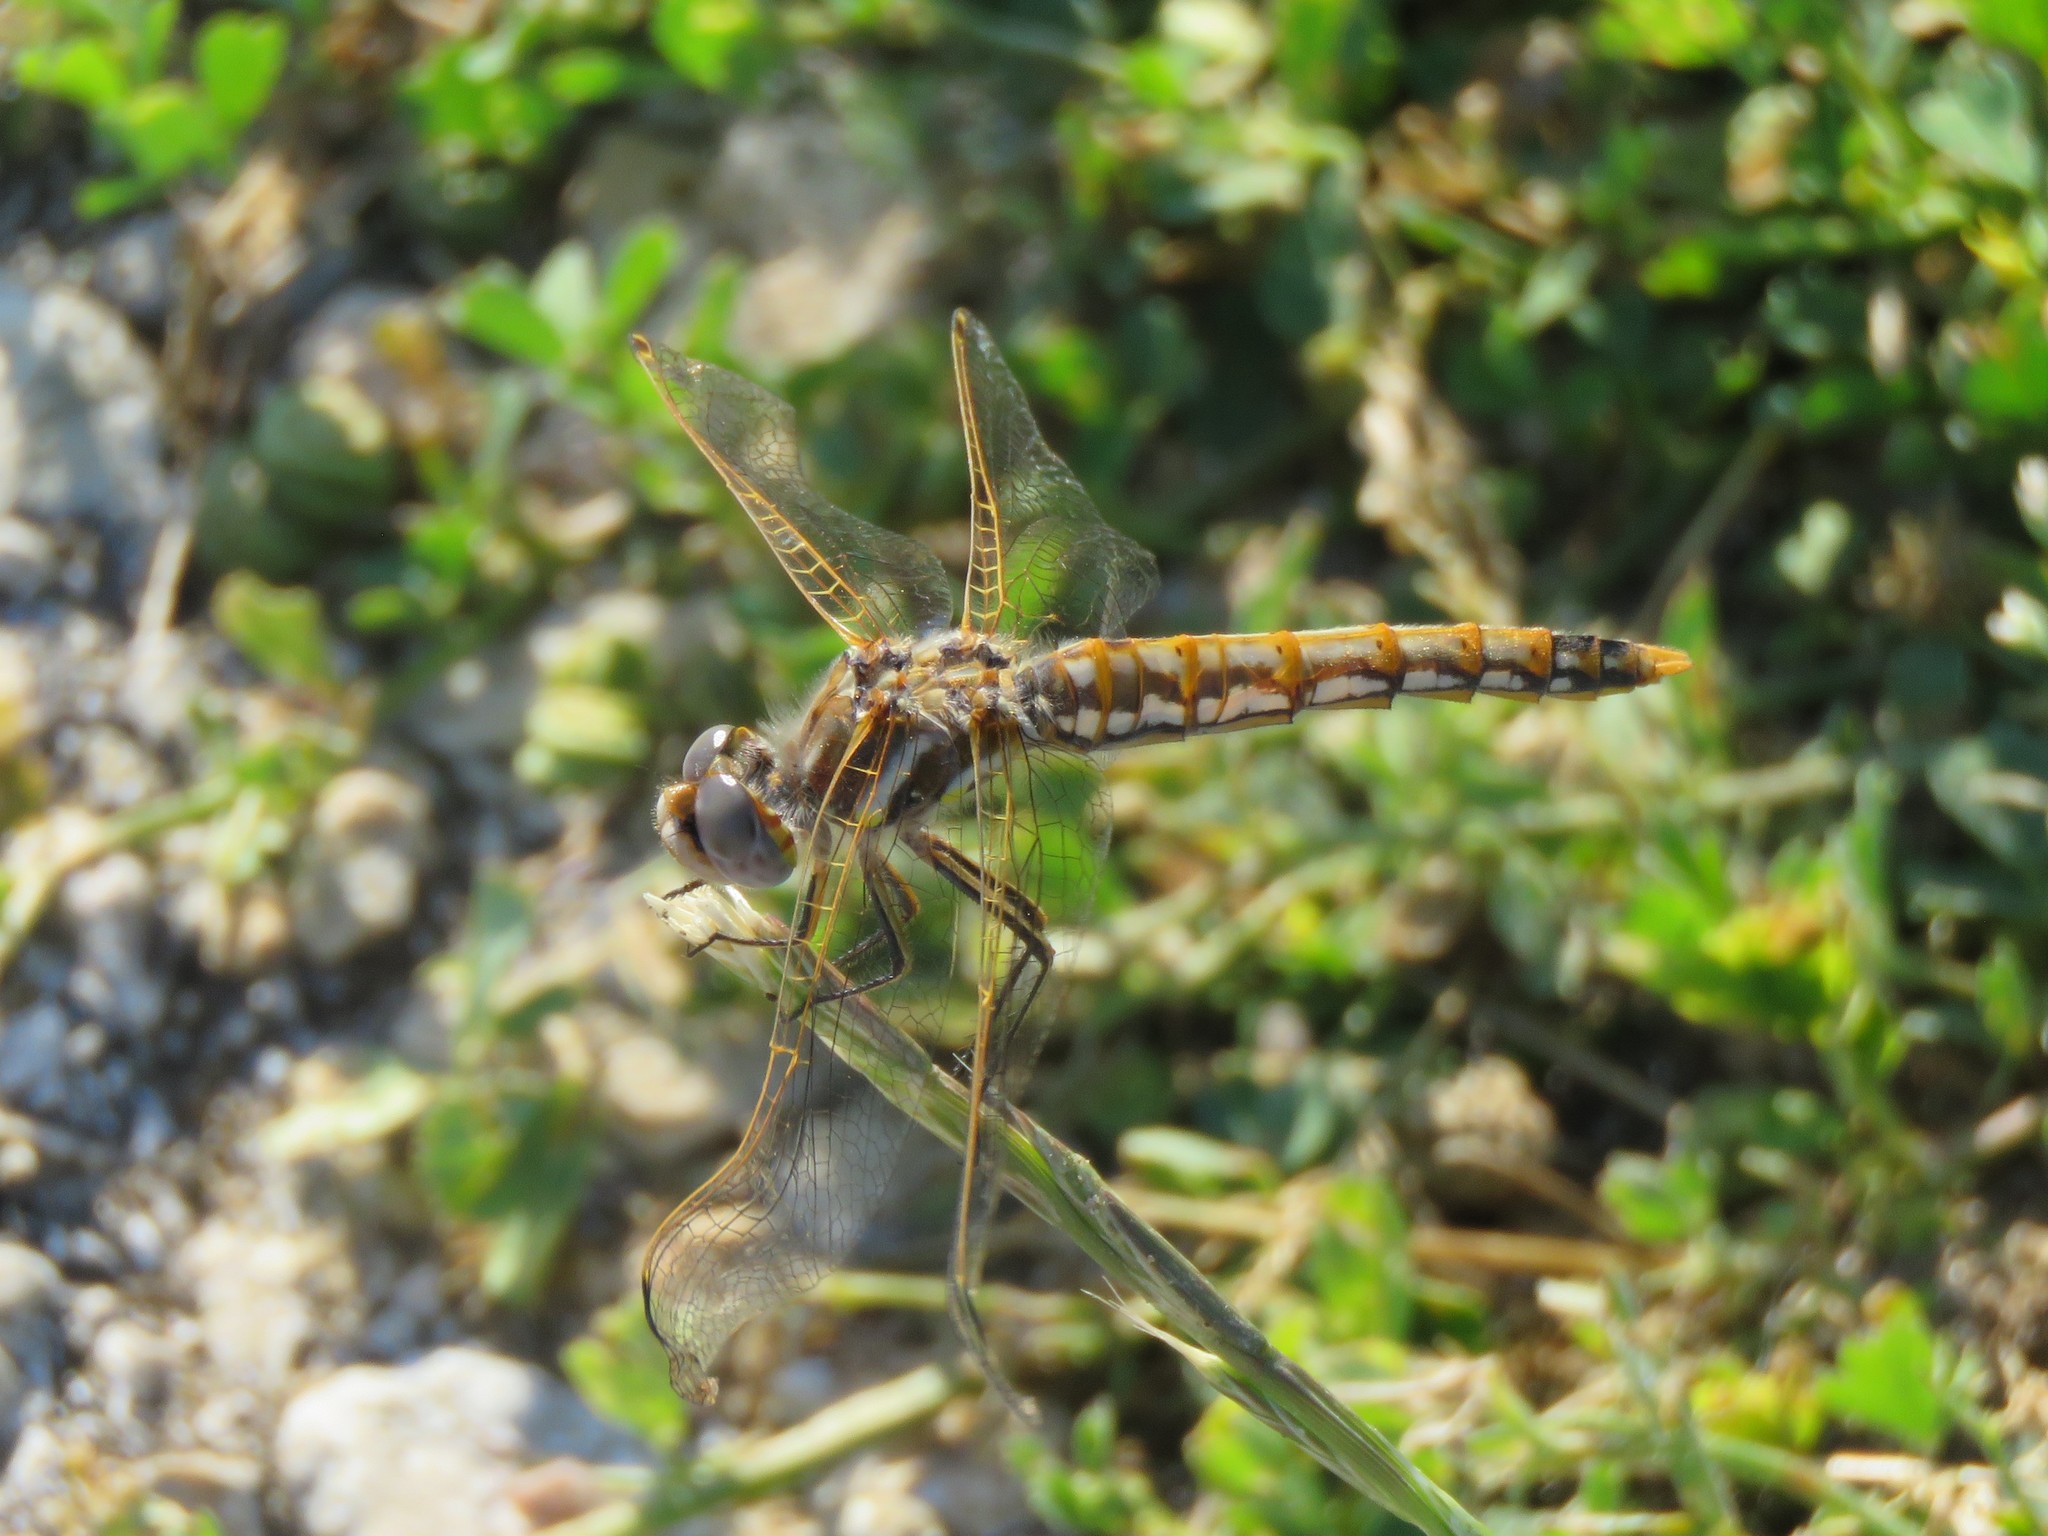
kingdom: Animalia
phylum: Arthropoda
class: Insecta
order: Odonata
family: Libellulidae
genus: Sympetrum
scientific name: Sympetrum corruptum
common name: Variegated meadowhawk
